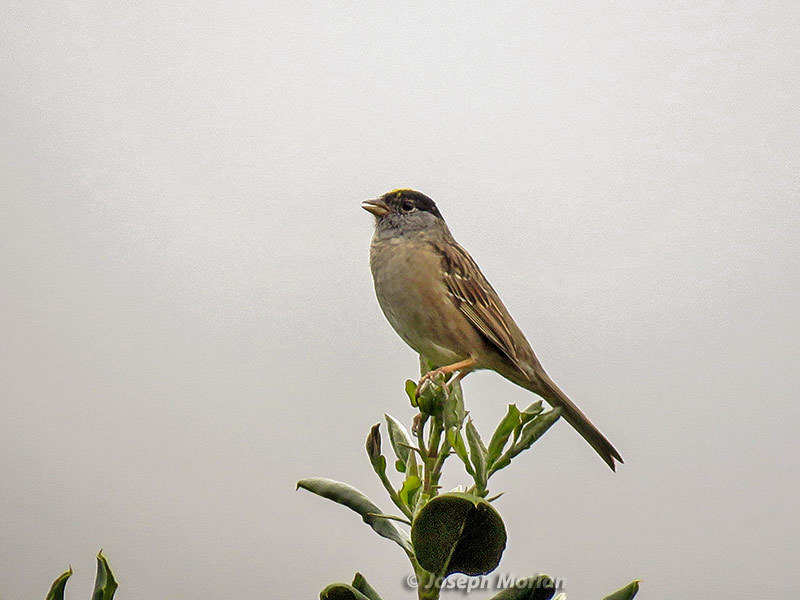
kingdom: Animalia
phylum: Chordata
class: Aves
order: Passeriformes
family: Passerellidae
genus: Zonotrichia
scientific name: Zonotrichia atricapilla
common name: Golden-crowned sparrow
